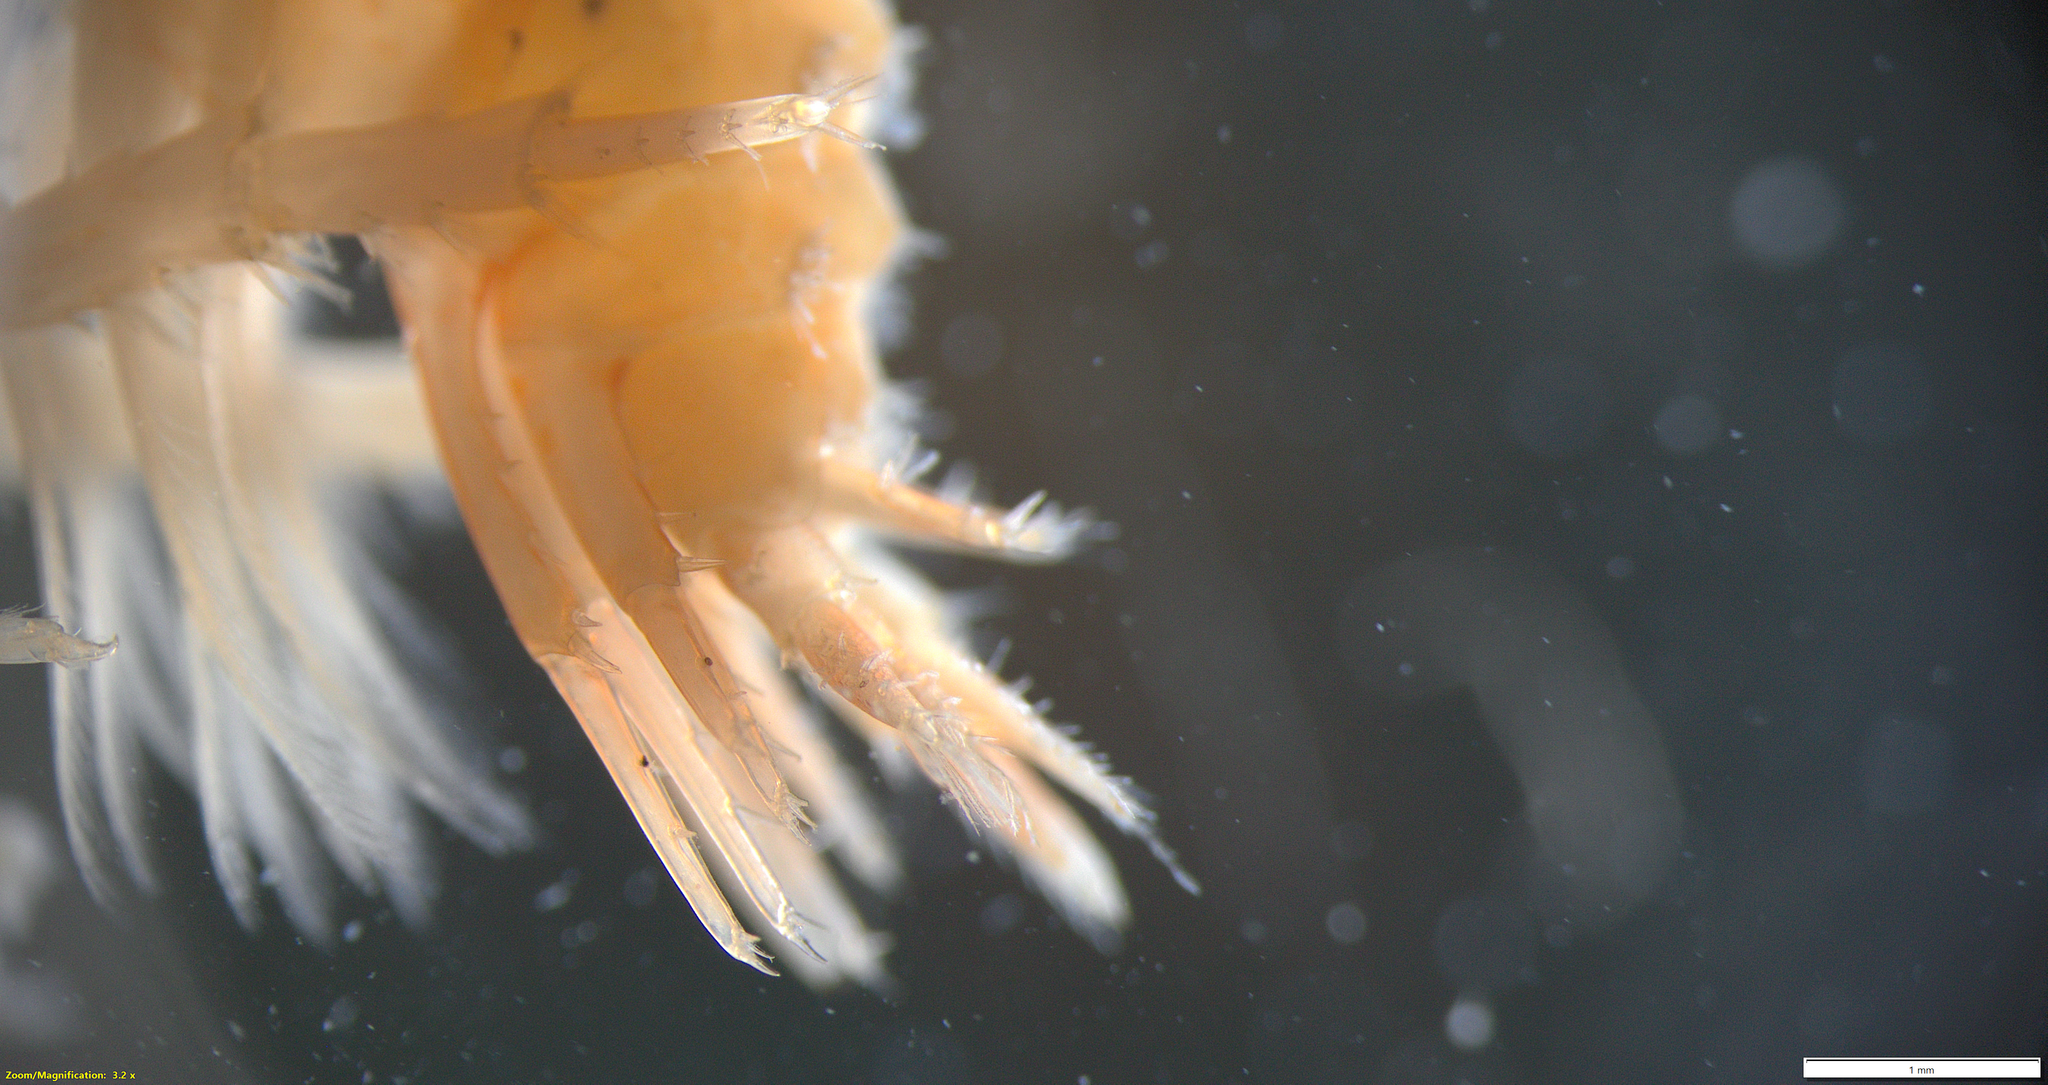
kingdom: Animalia
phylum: Arthropoda
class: Malacostraca
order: Amphipoda
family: Gammaridae
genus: Gammarus
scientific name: Gammarus oceanicus
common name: Oceanic scud
